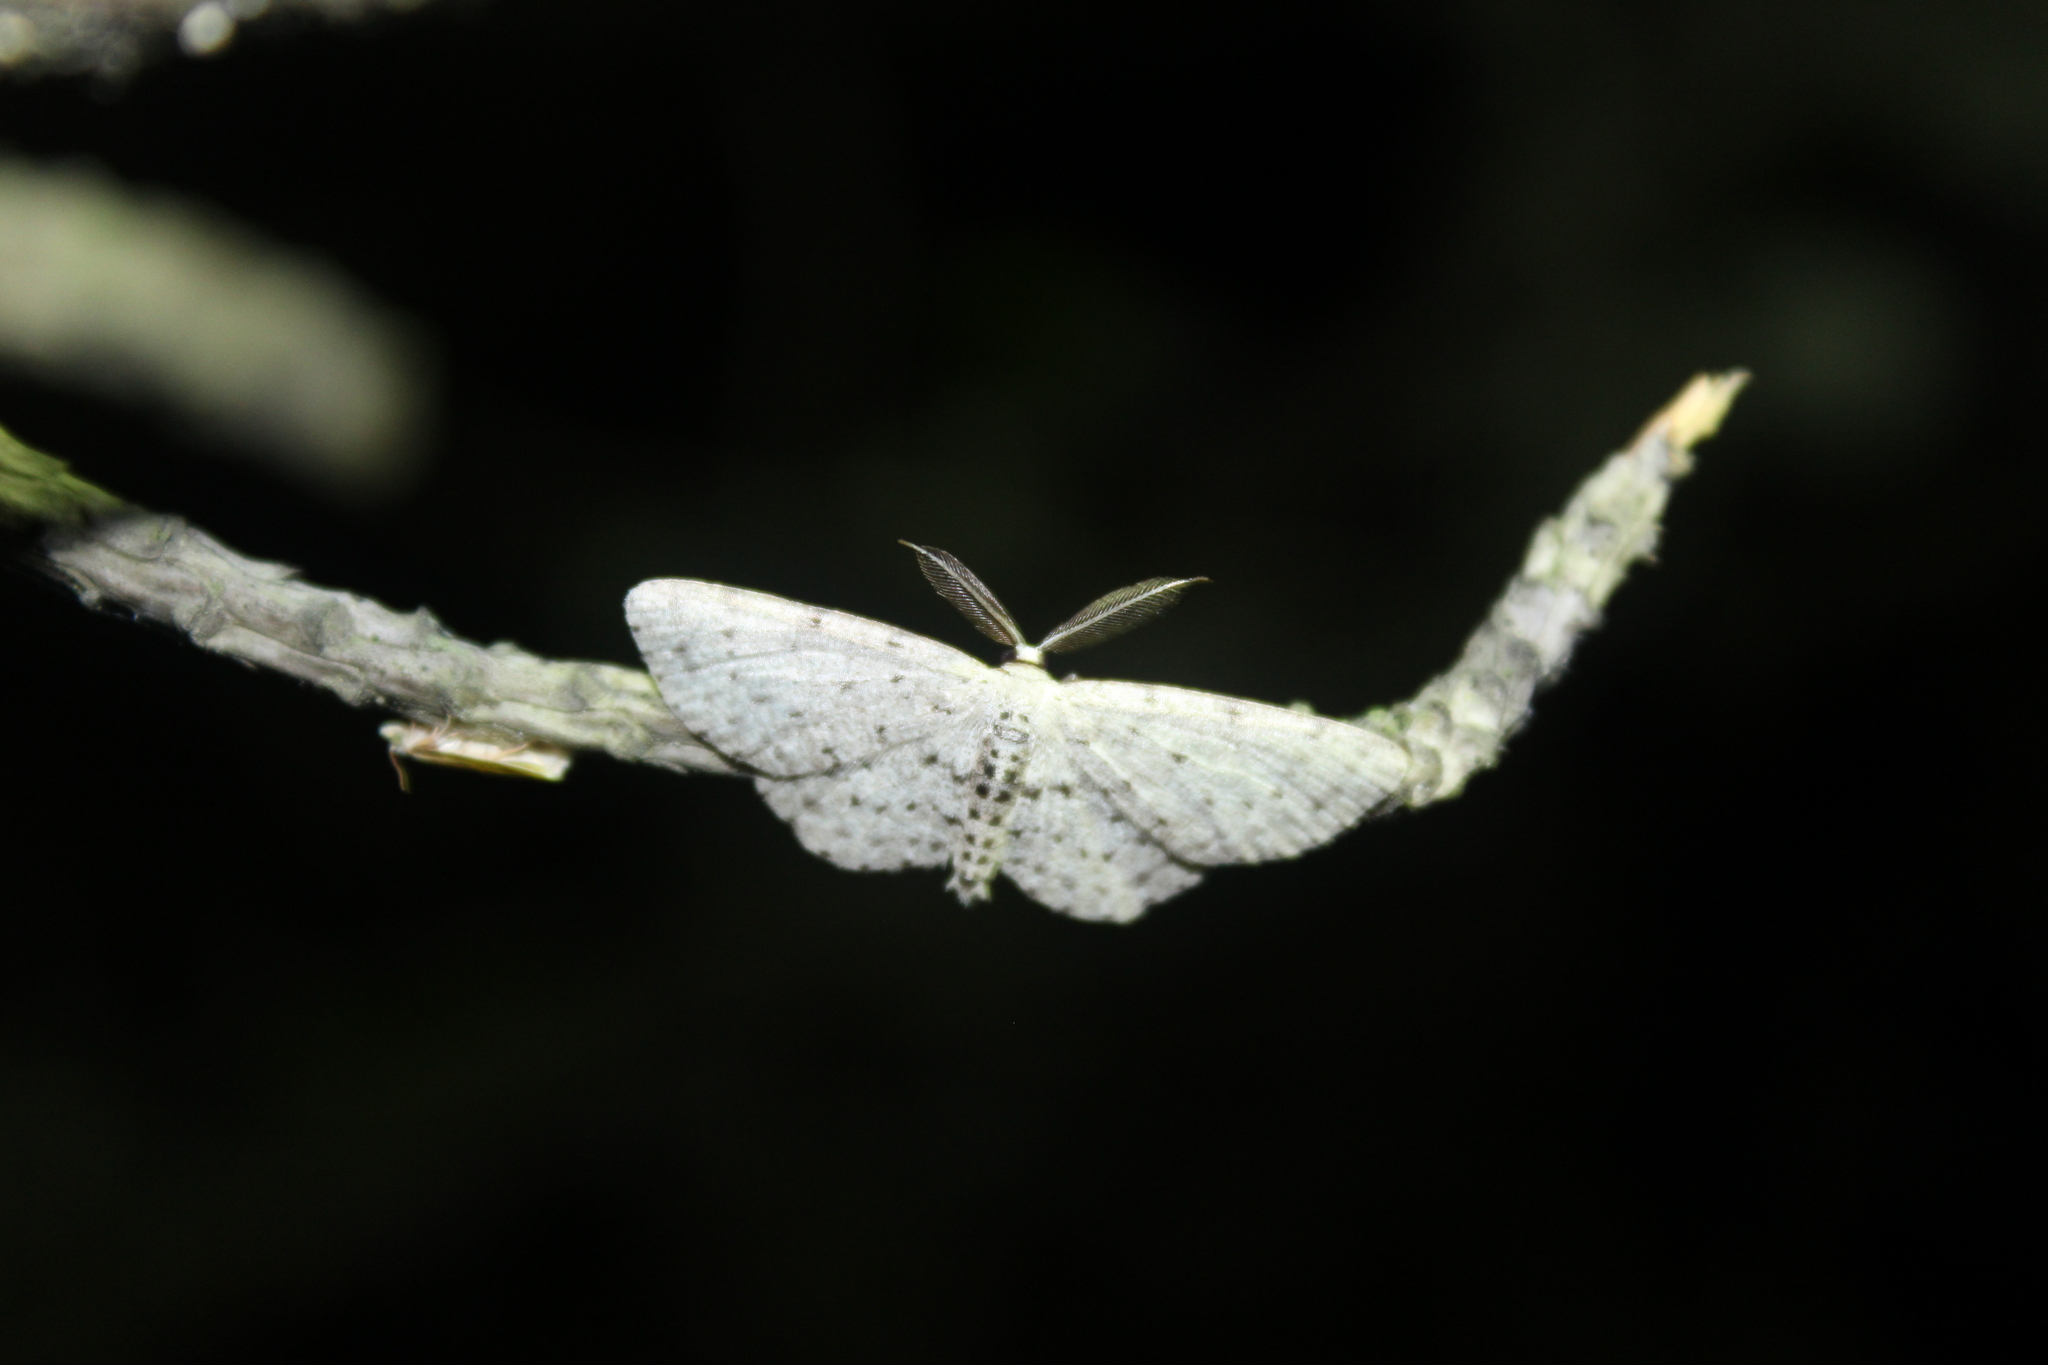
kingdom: Animalia
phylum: Arthropoda
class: Insecta
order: Lepidoptera
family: Geometridae
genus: Glena
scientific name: Glena cribrataria
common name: Dotted gray
